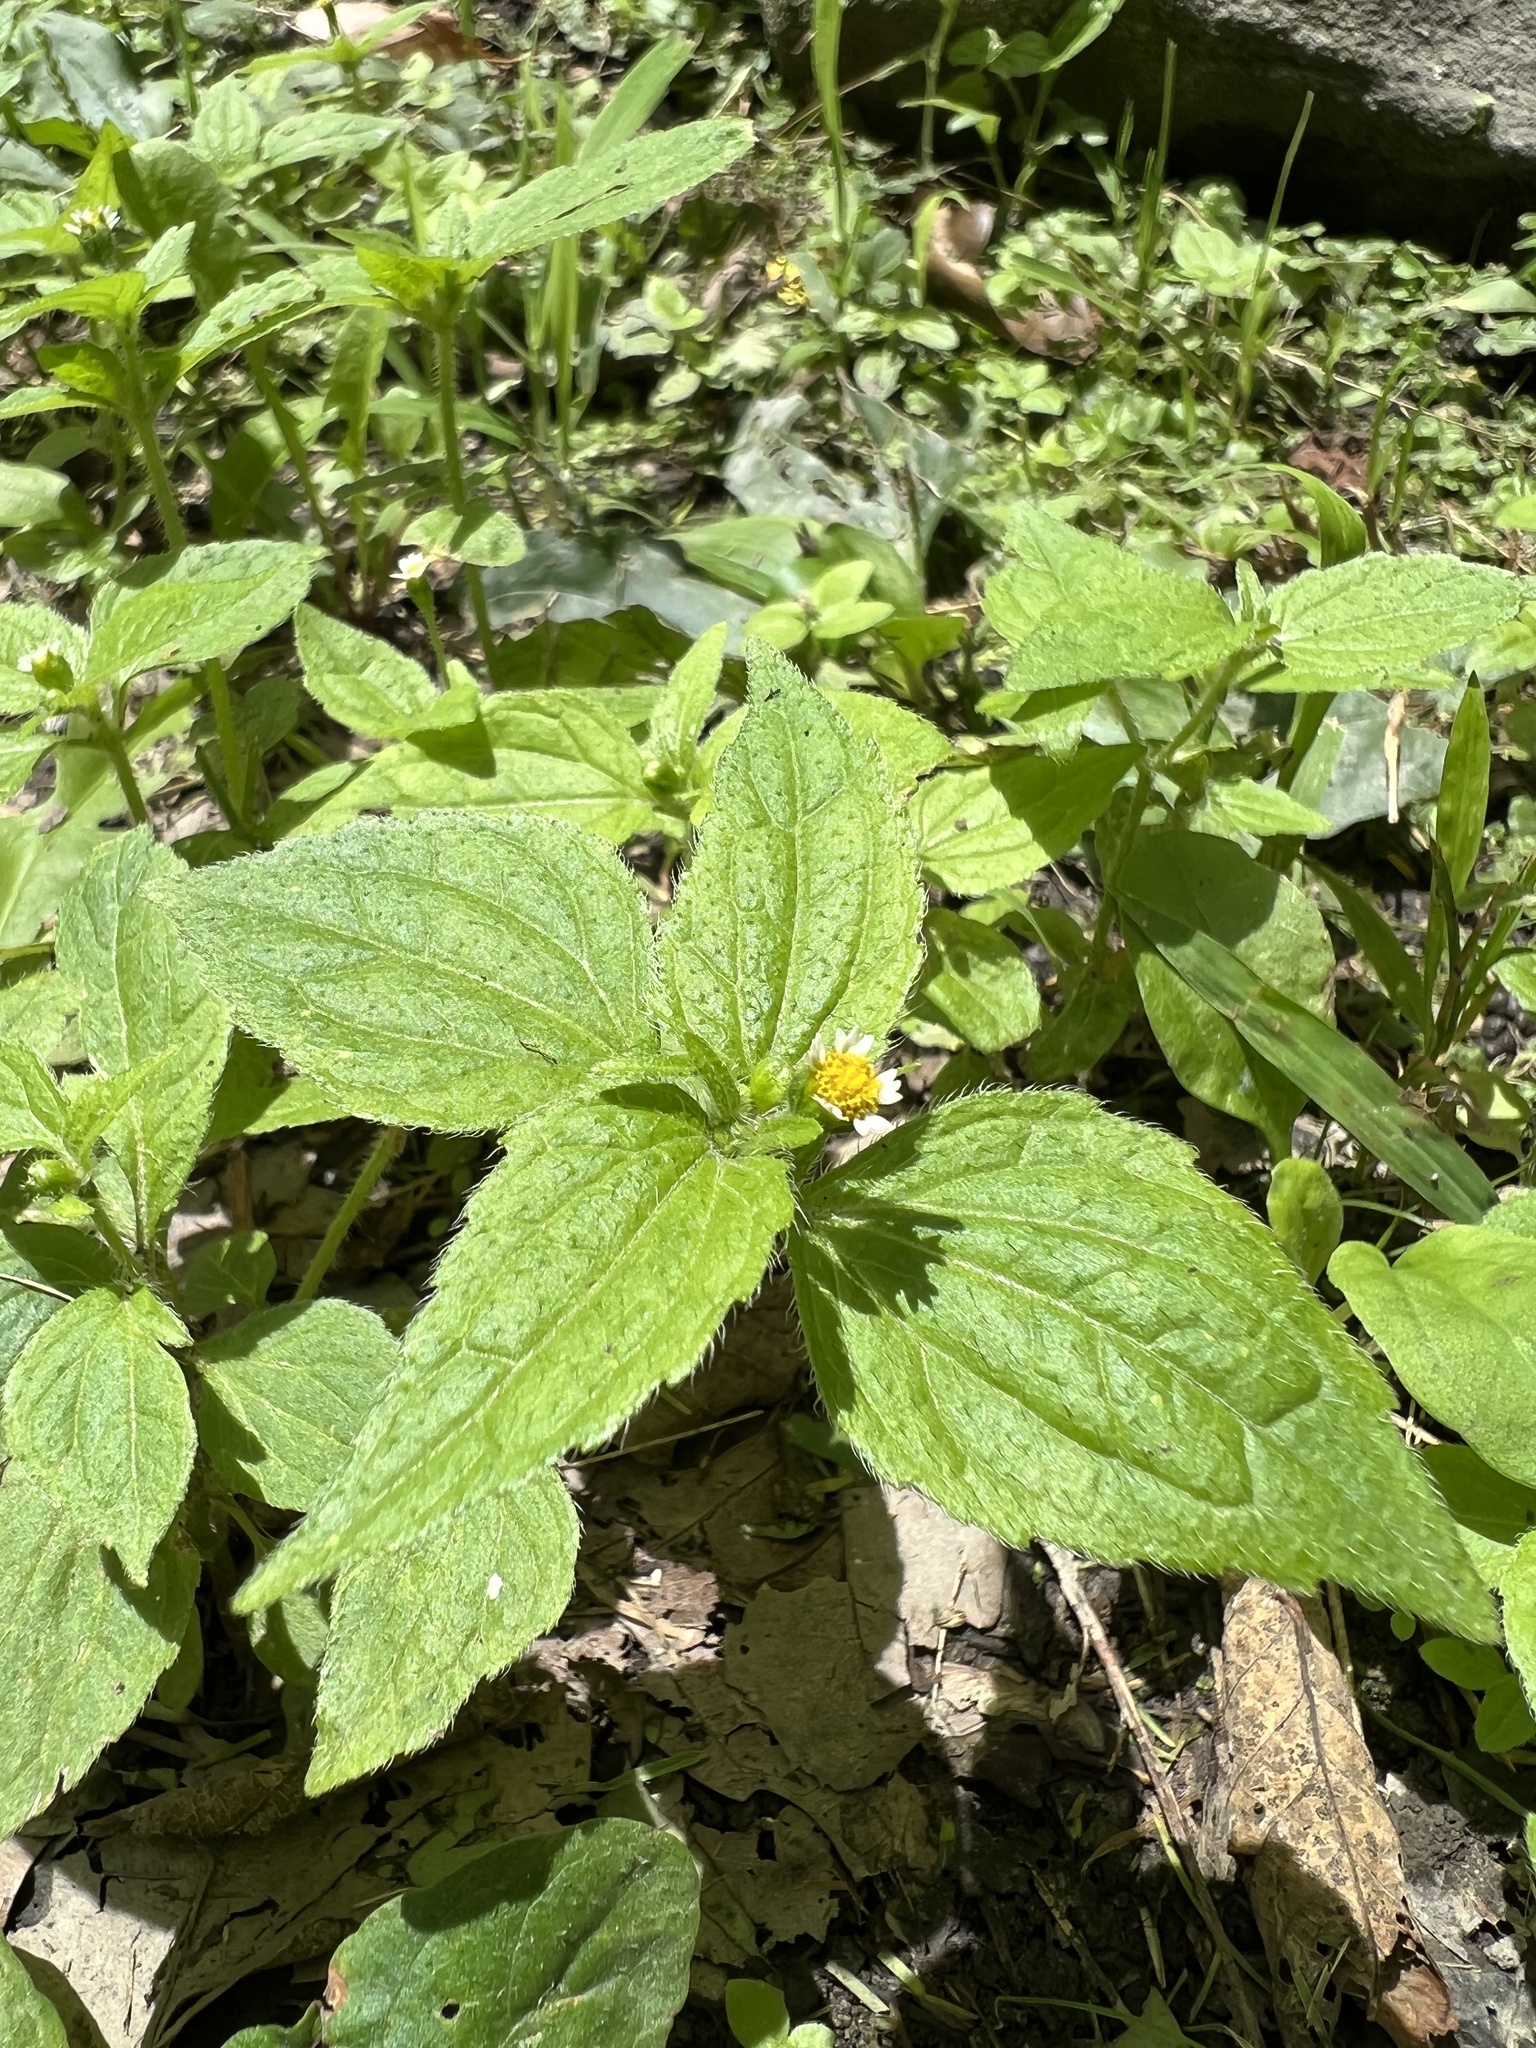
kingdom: Plantae
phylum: Tracheophyta
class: Magnoliopsida
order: Asterales
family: Asteraceae
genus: Galinsoga
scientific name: Galinsoga quadriradiata
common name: Shaggy soldier
